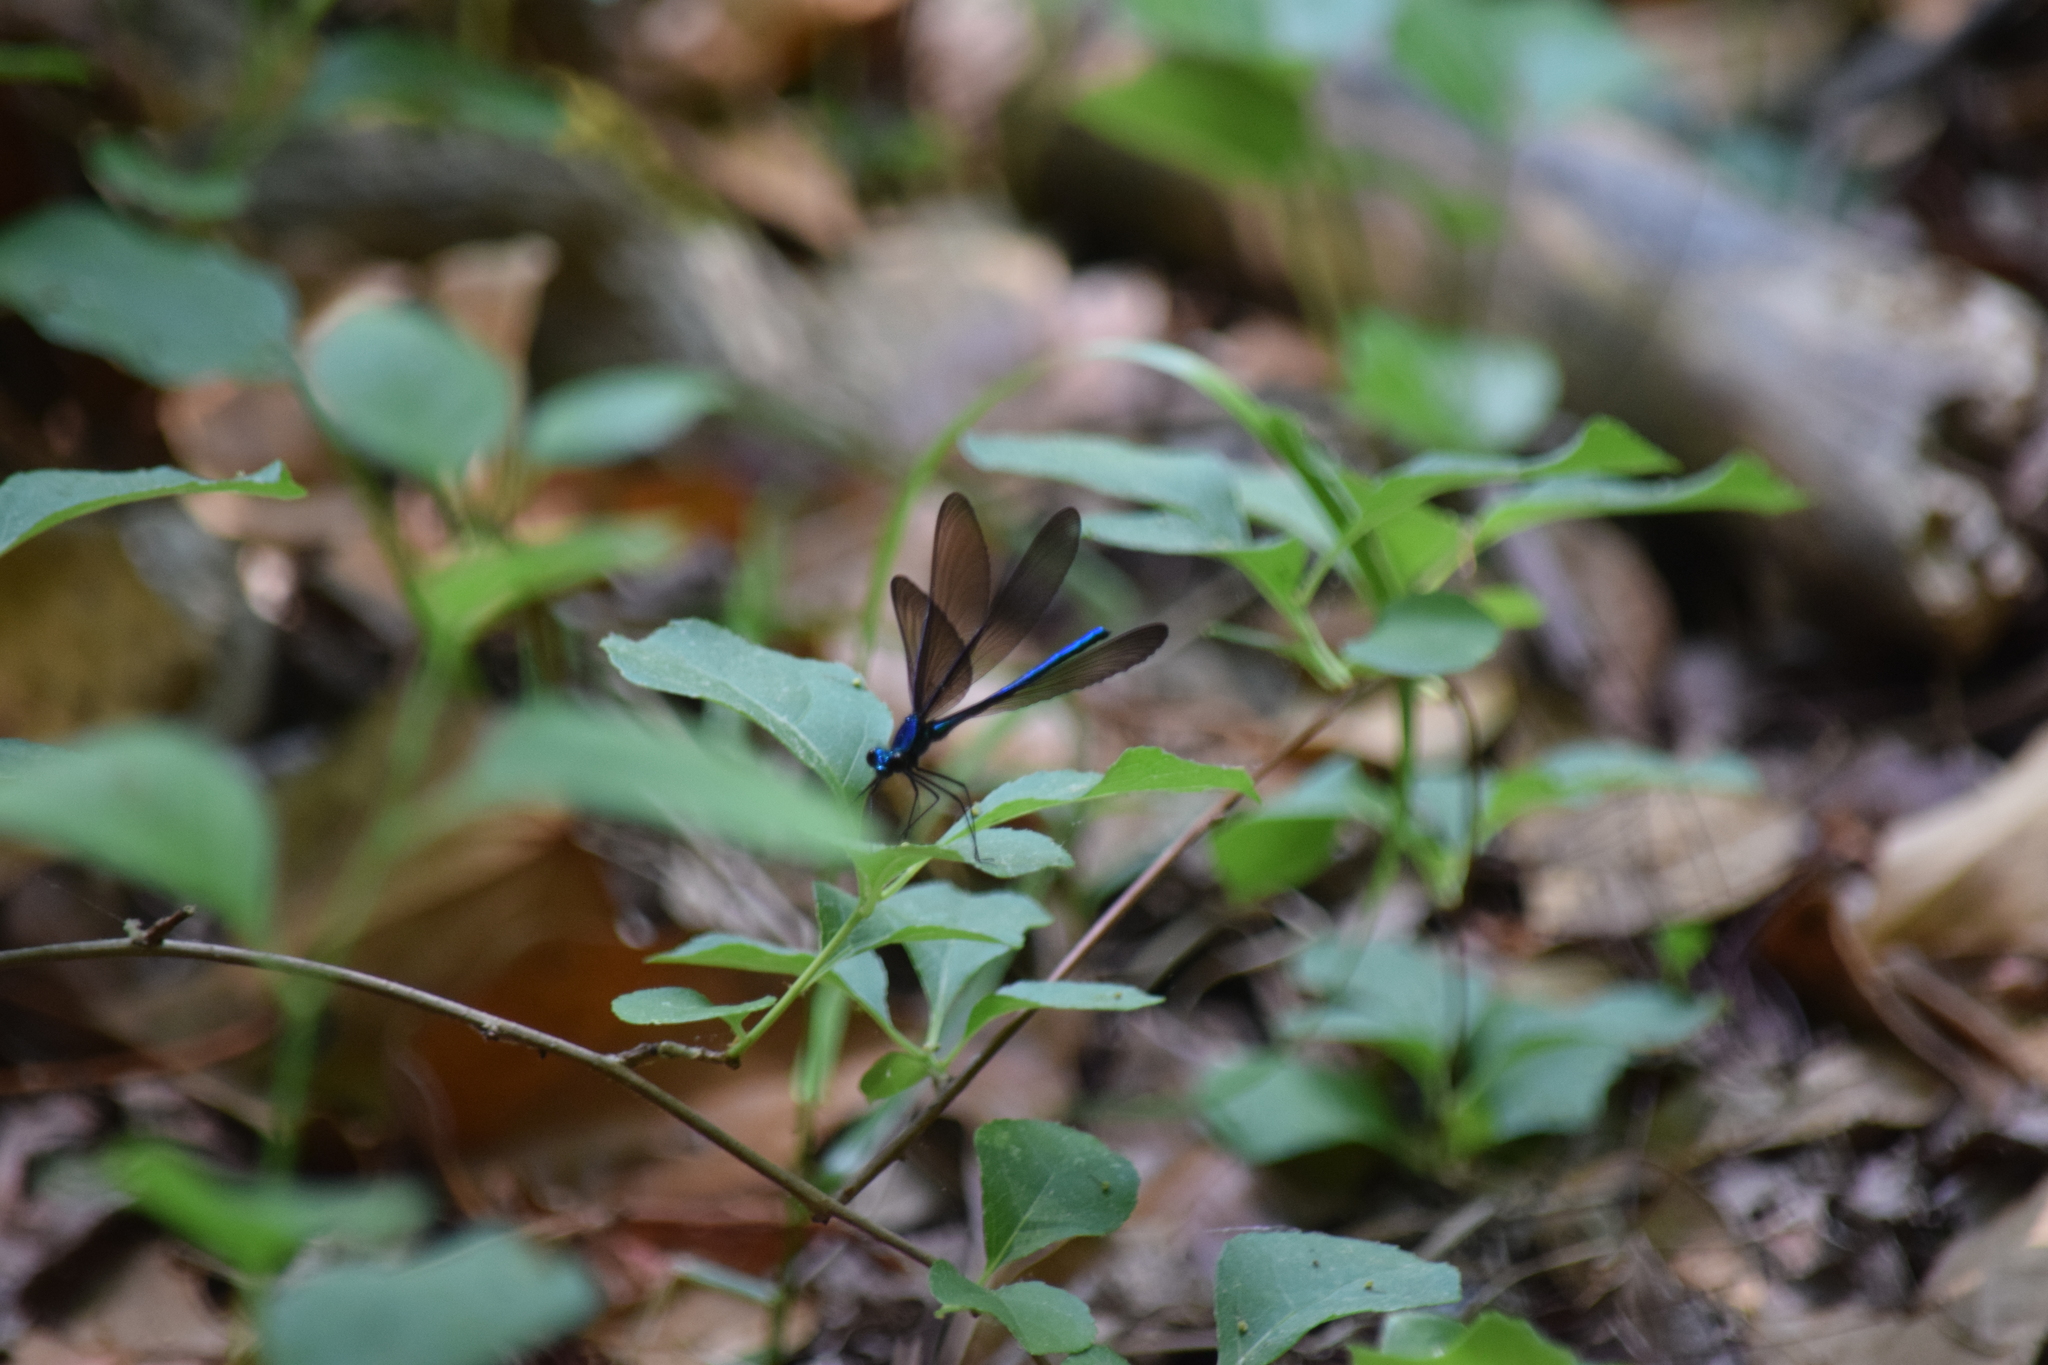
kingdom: Animalia
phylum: Arthropoda
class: Insecta
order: Odonata
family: Calopterygidae
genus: Calopteryx
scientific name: Calopteryx maculata
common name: Ebony jewelwing
